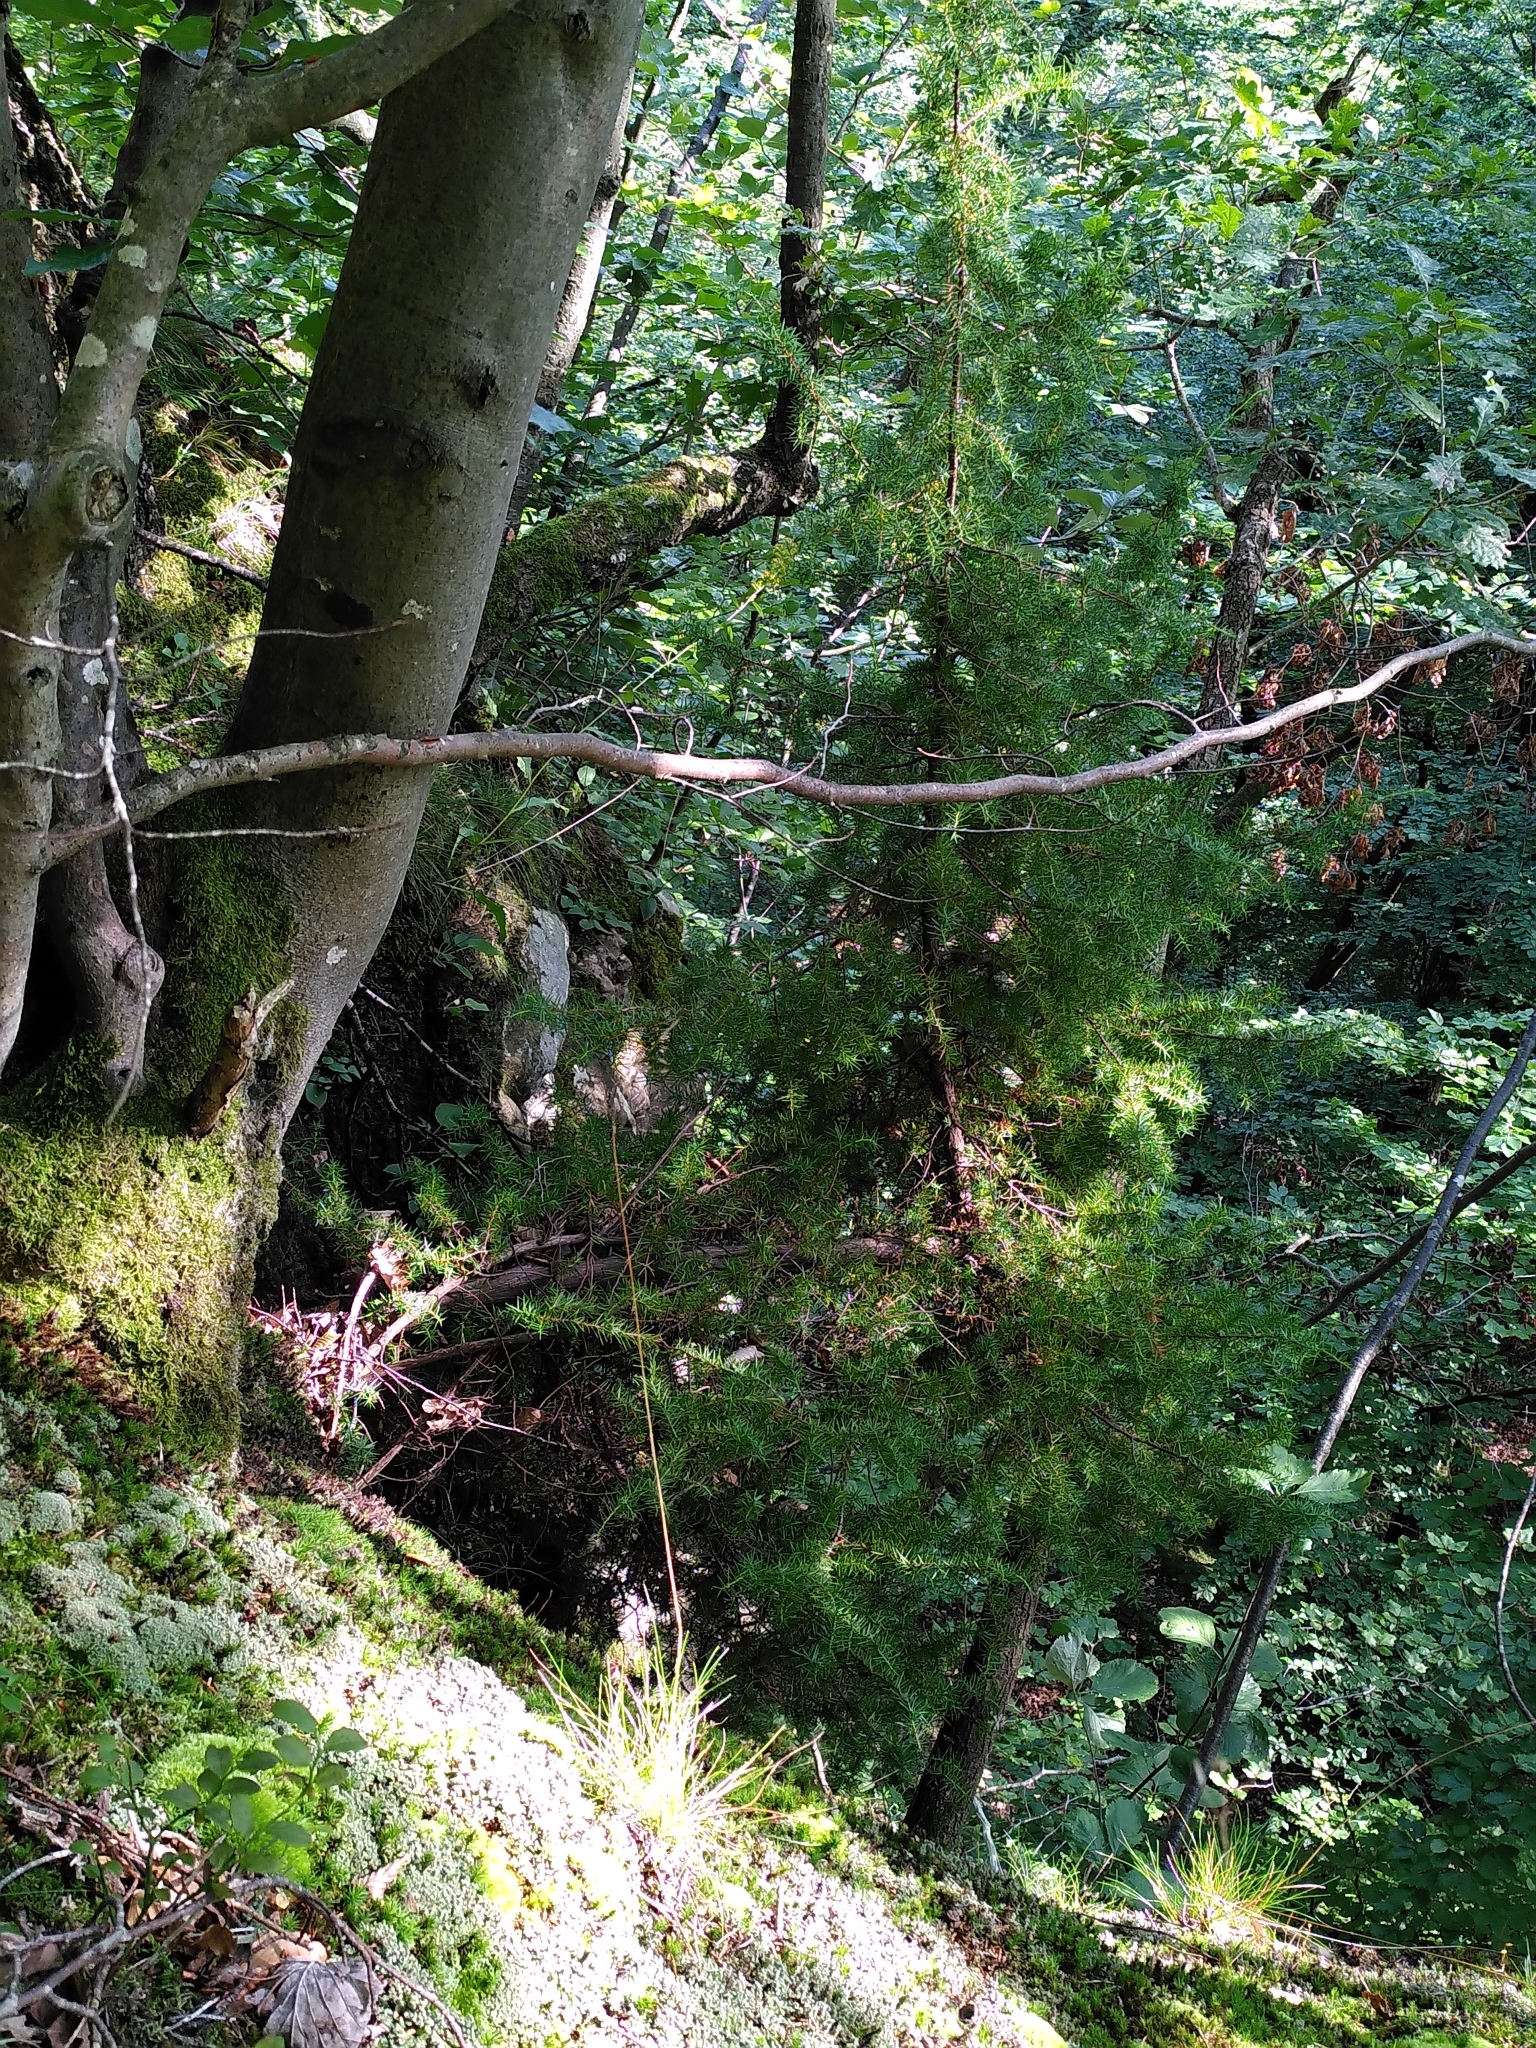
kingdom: Plantae
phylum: Tracheophyta
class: Pinopsida
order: Pinales
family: Cupressaceae
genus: Juniperus
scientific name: Juniperus communis
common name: Common juniper
